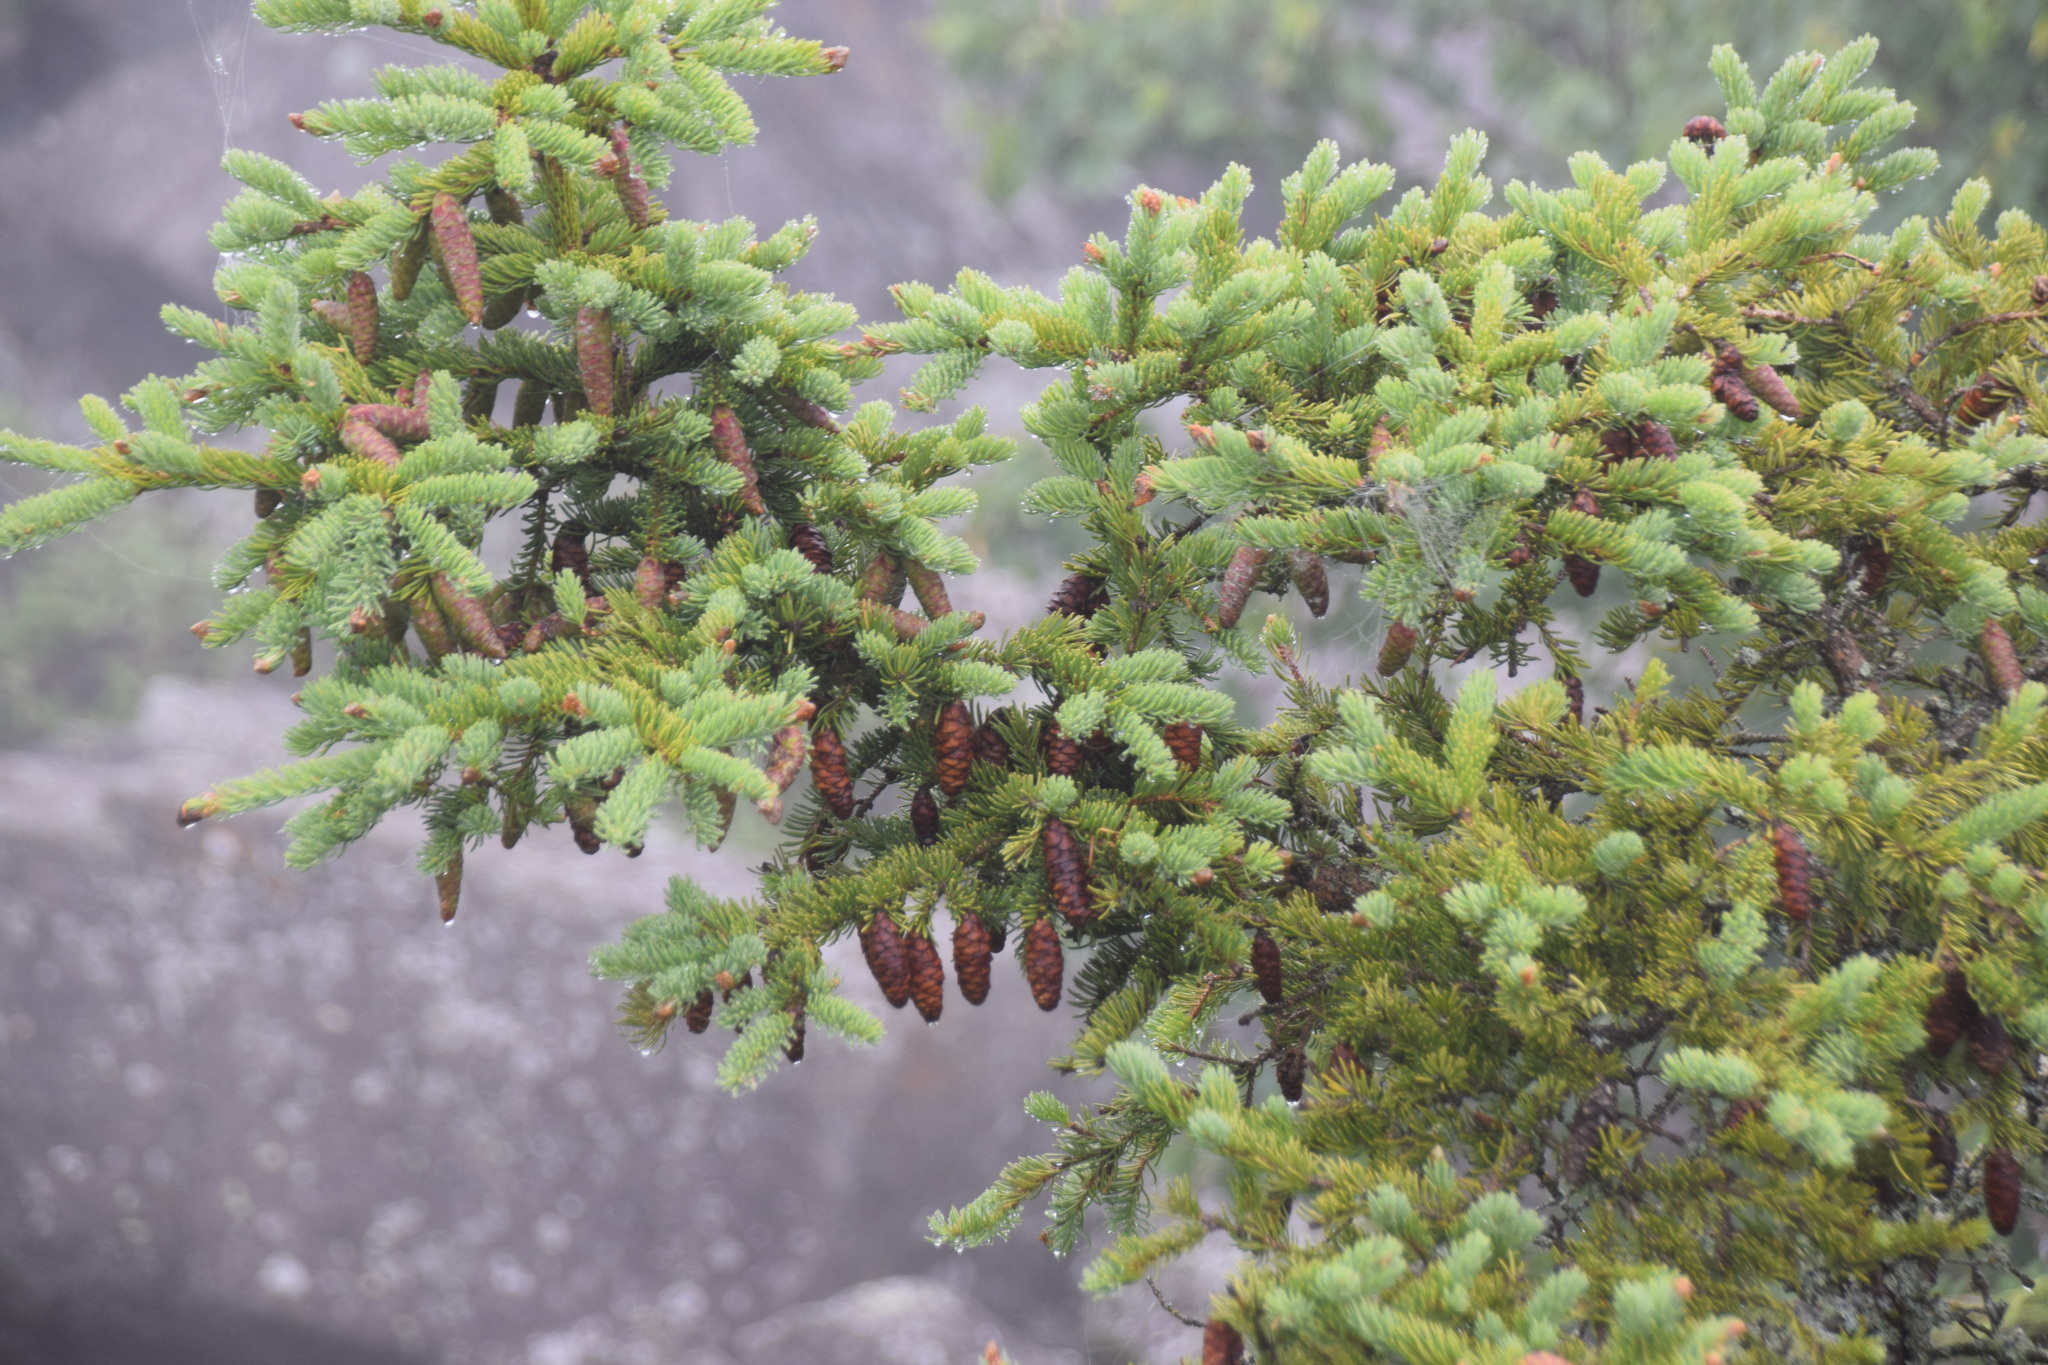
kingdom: Plantae
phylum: Tracheophyta
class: Pinopsida
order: Pinales
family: Pinaceae
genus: Picea
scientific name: Picea glauca
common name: White spruce
